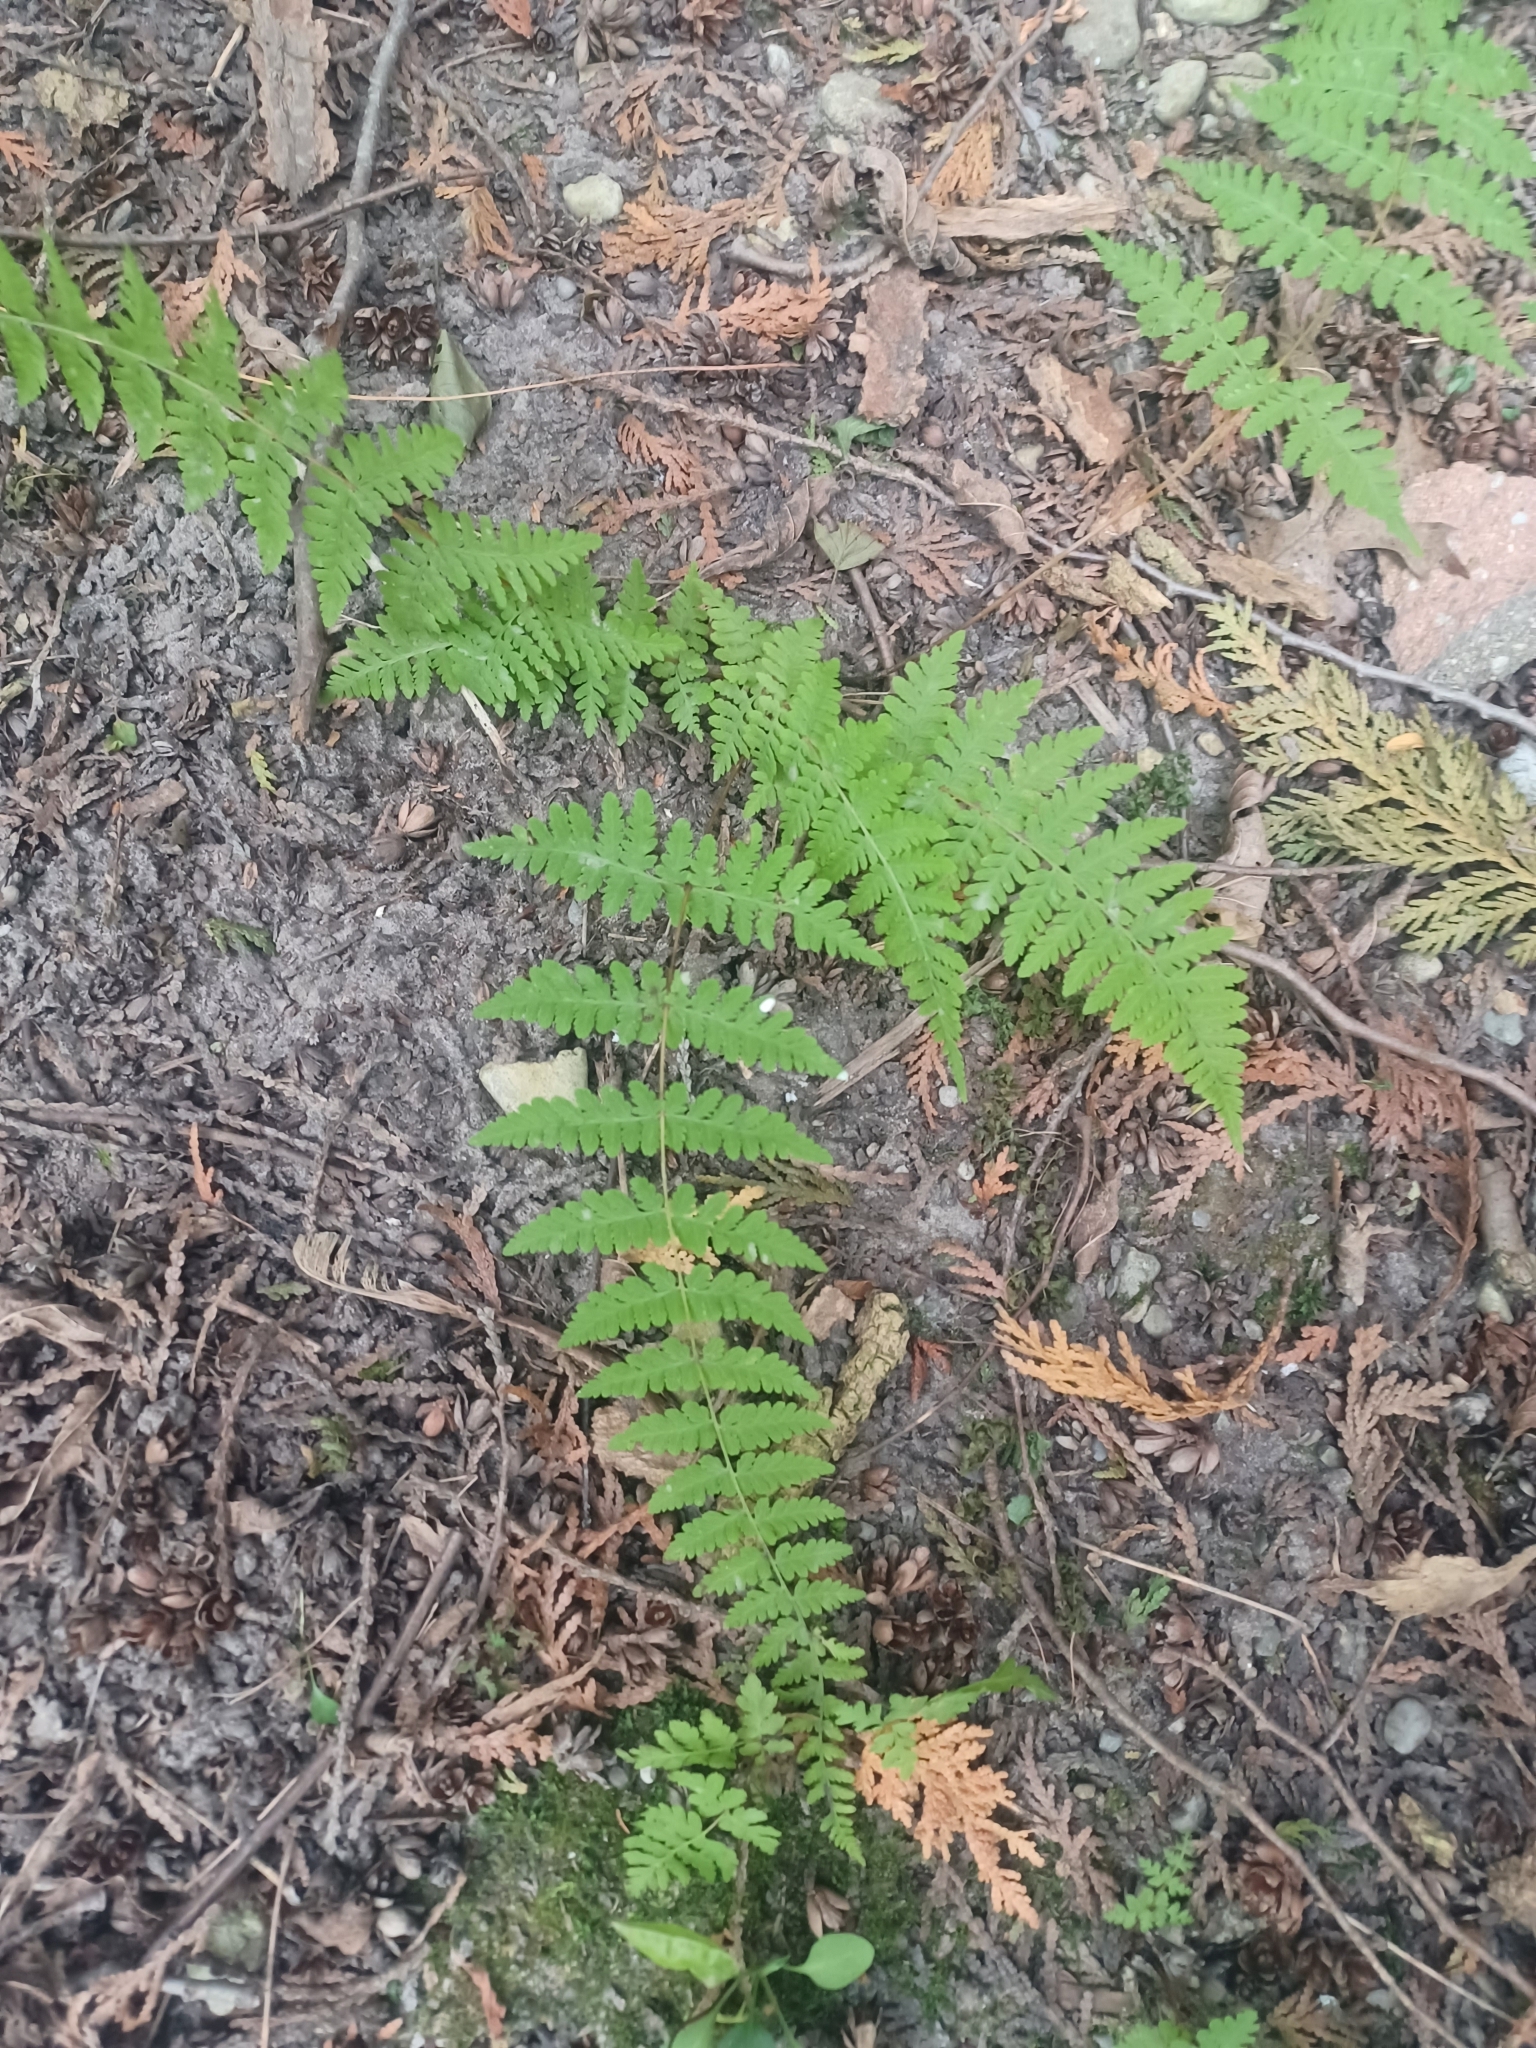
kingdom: Plantae
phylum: Tracheophyta
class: Polypodiopsida
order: Polypodiales
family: Cystopteridaceae
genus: Cystopteris
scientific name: Cystopteris bulbifera
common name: Bulblet bladder fern
